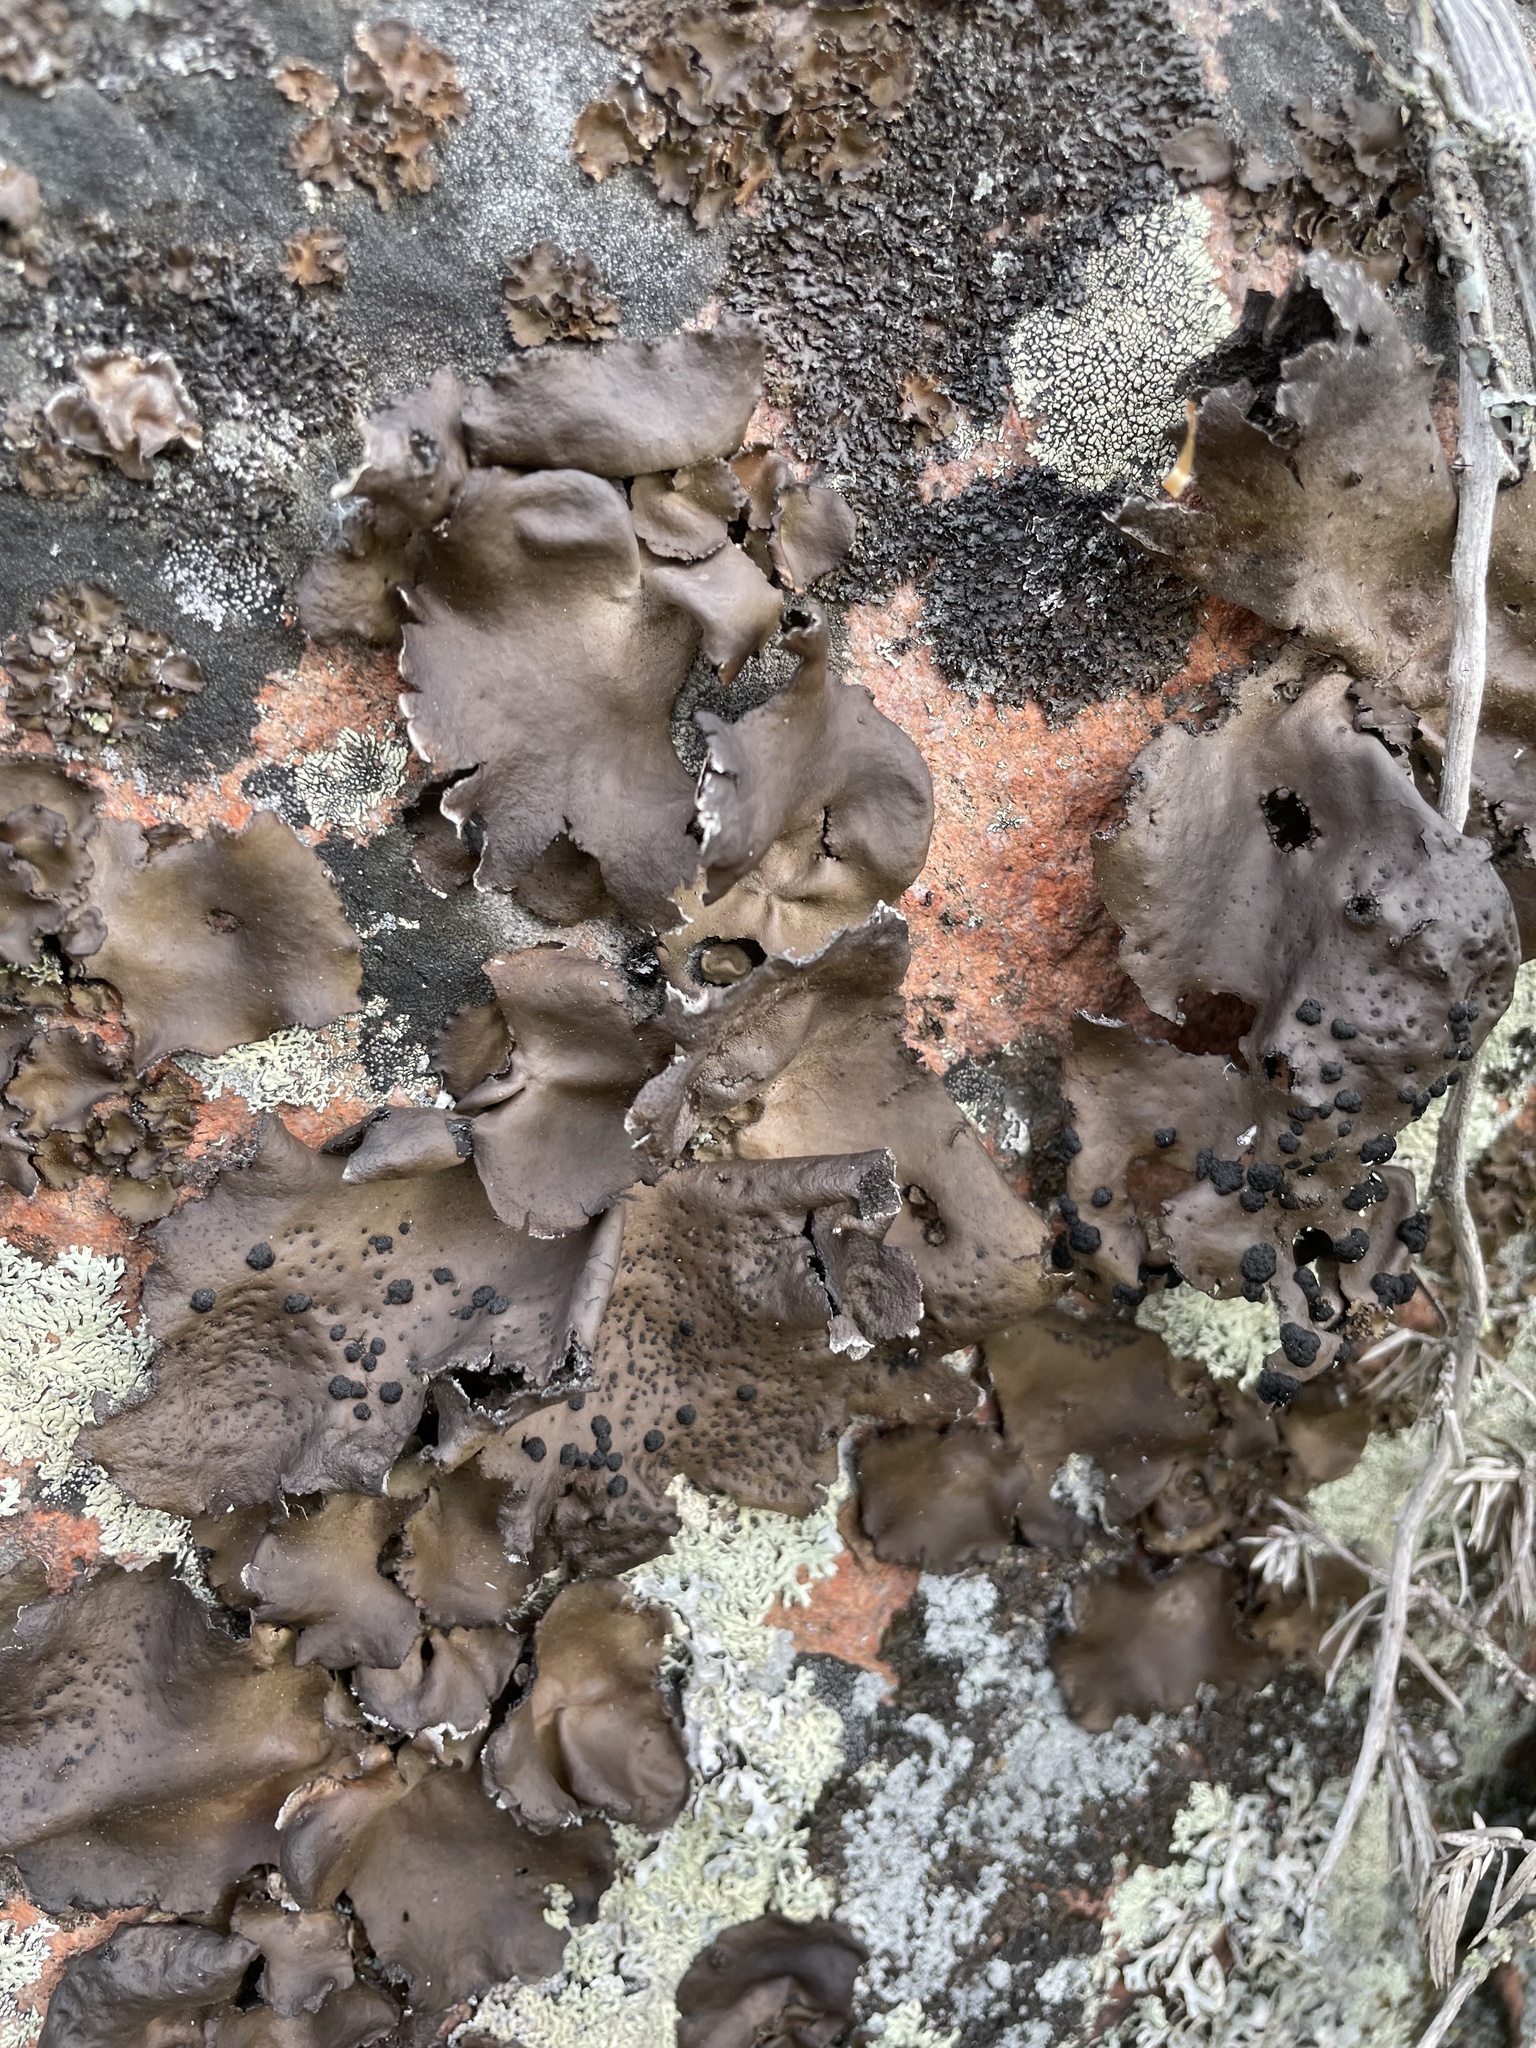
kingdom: Fungi
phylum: Ascomycota
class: Lecanoromycetes
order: Umbilicariales
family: Umbilicariaceae
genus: Umbilicaria
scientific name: Umbilicaria muhlenbergii
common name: Lesser rocktripe
